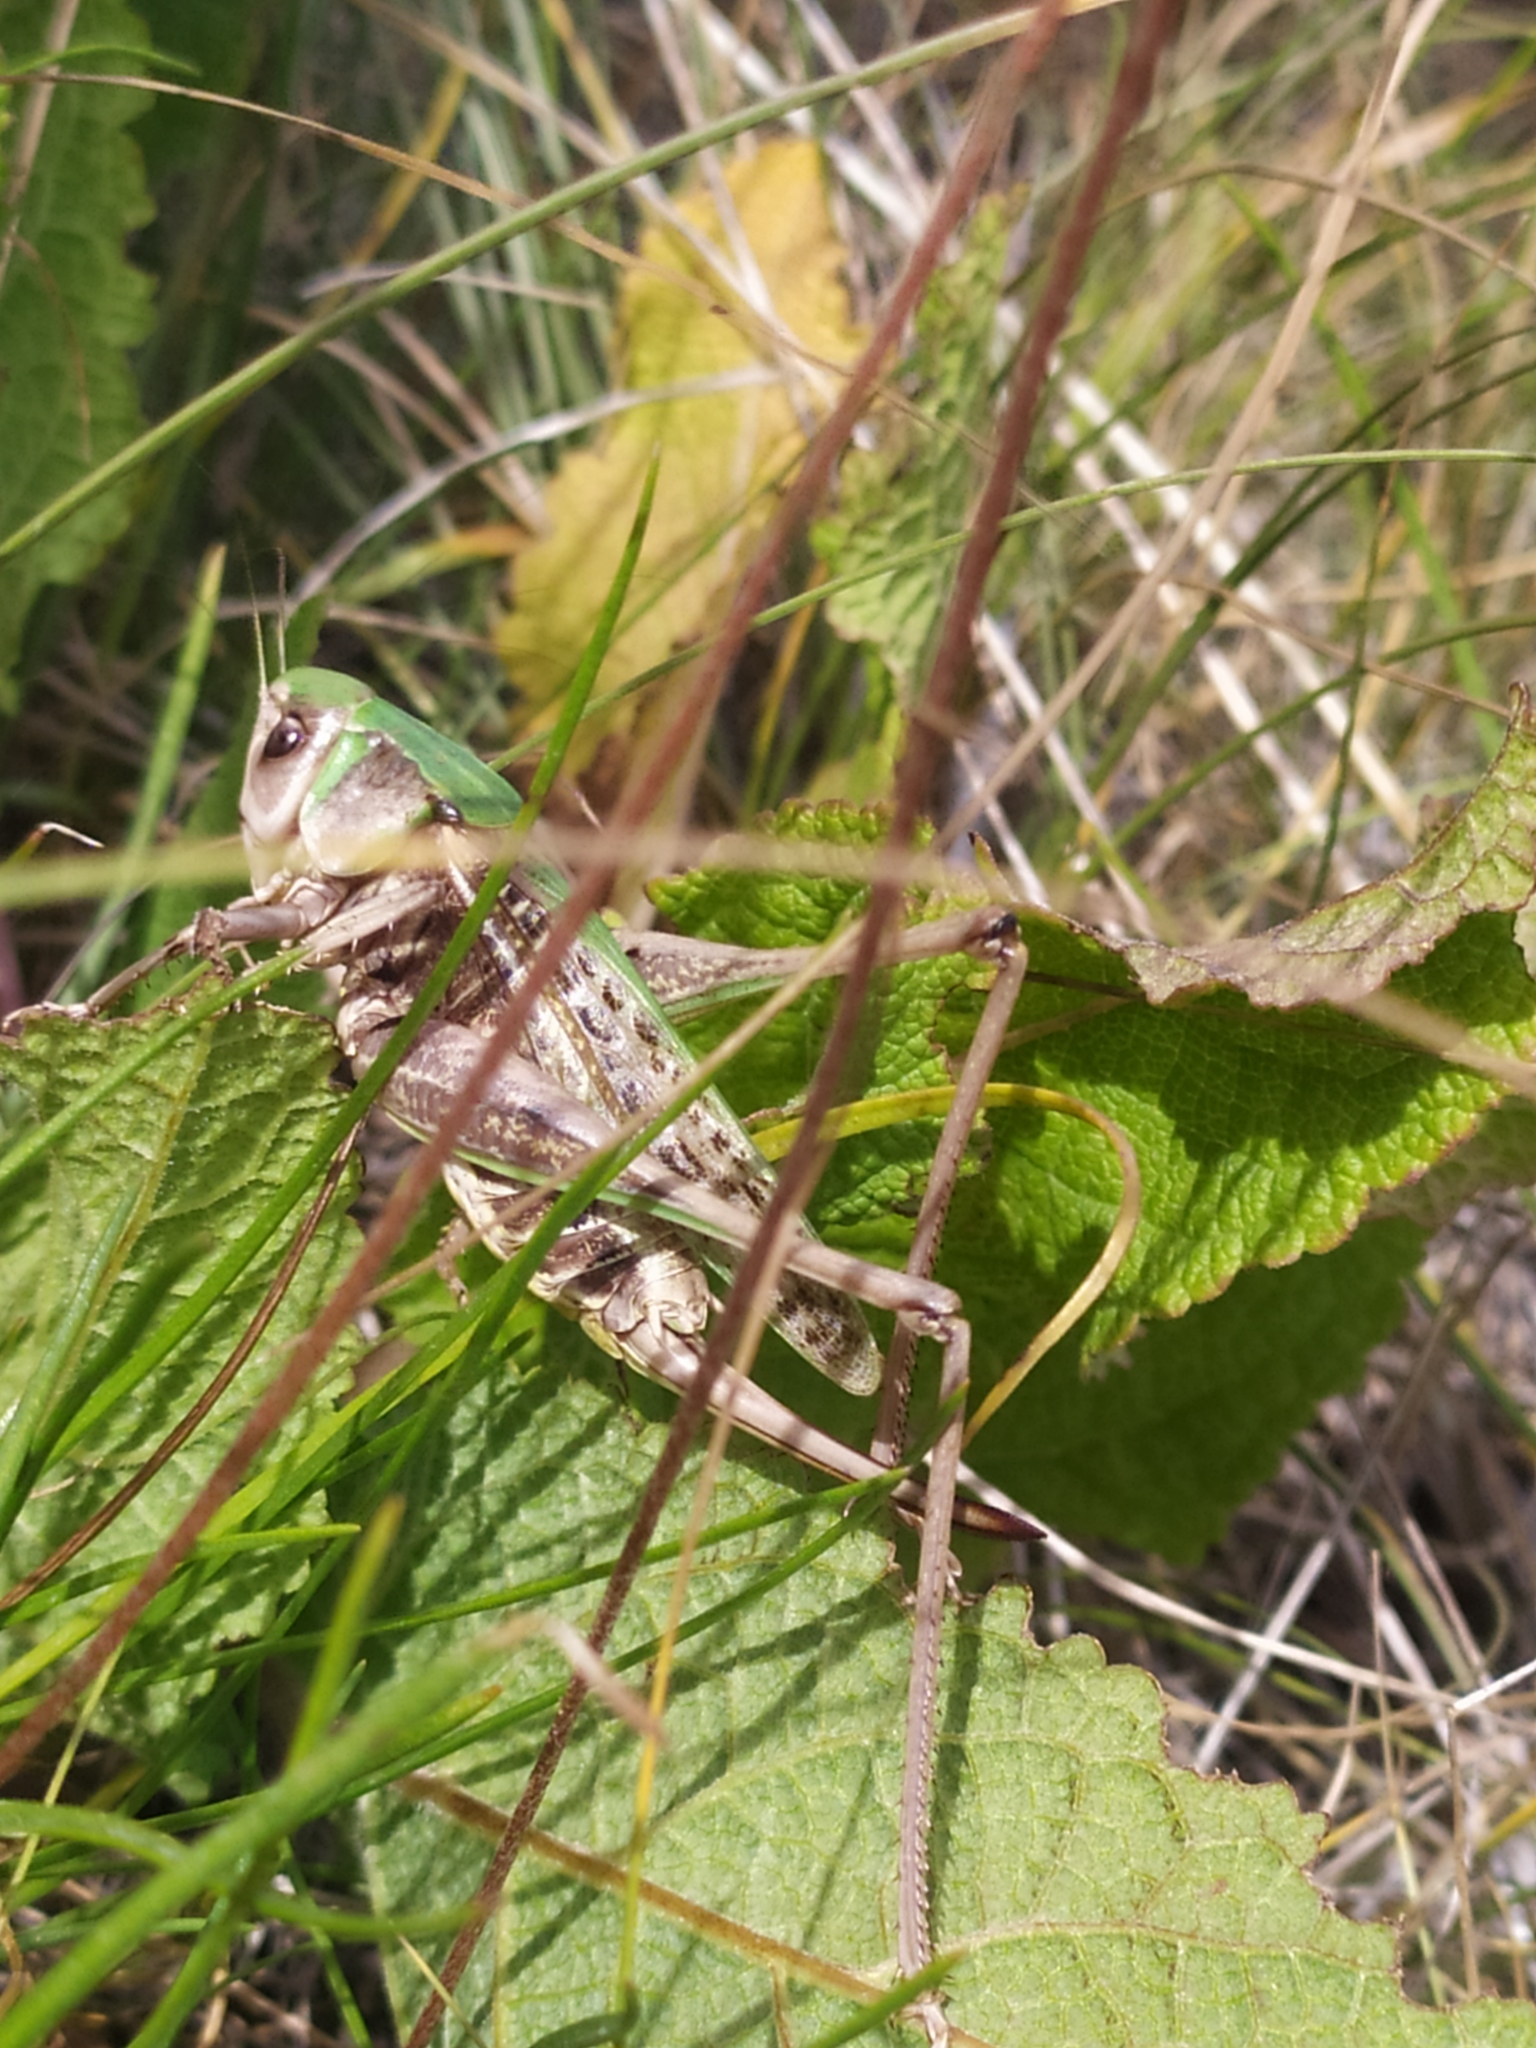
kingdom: Animalia
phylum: Arthropoda
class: Insecta
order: Orthoptera
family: Tettigoniidae
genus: Decticus
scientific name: Decticus verrucivorus
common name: Wart-biter
